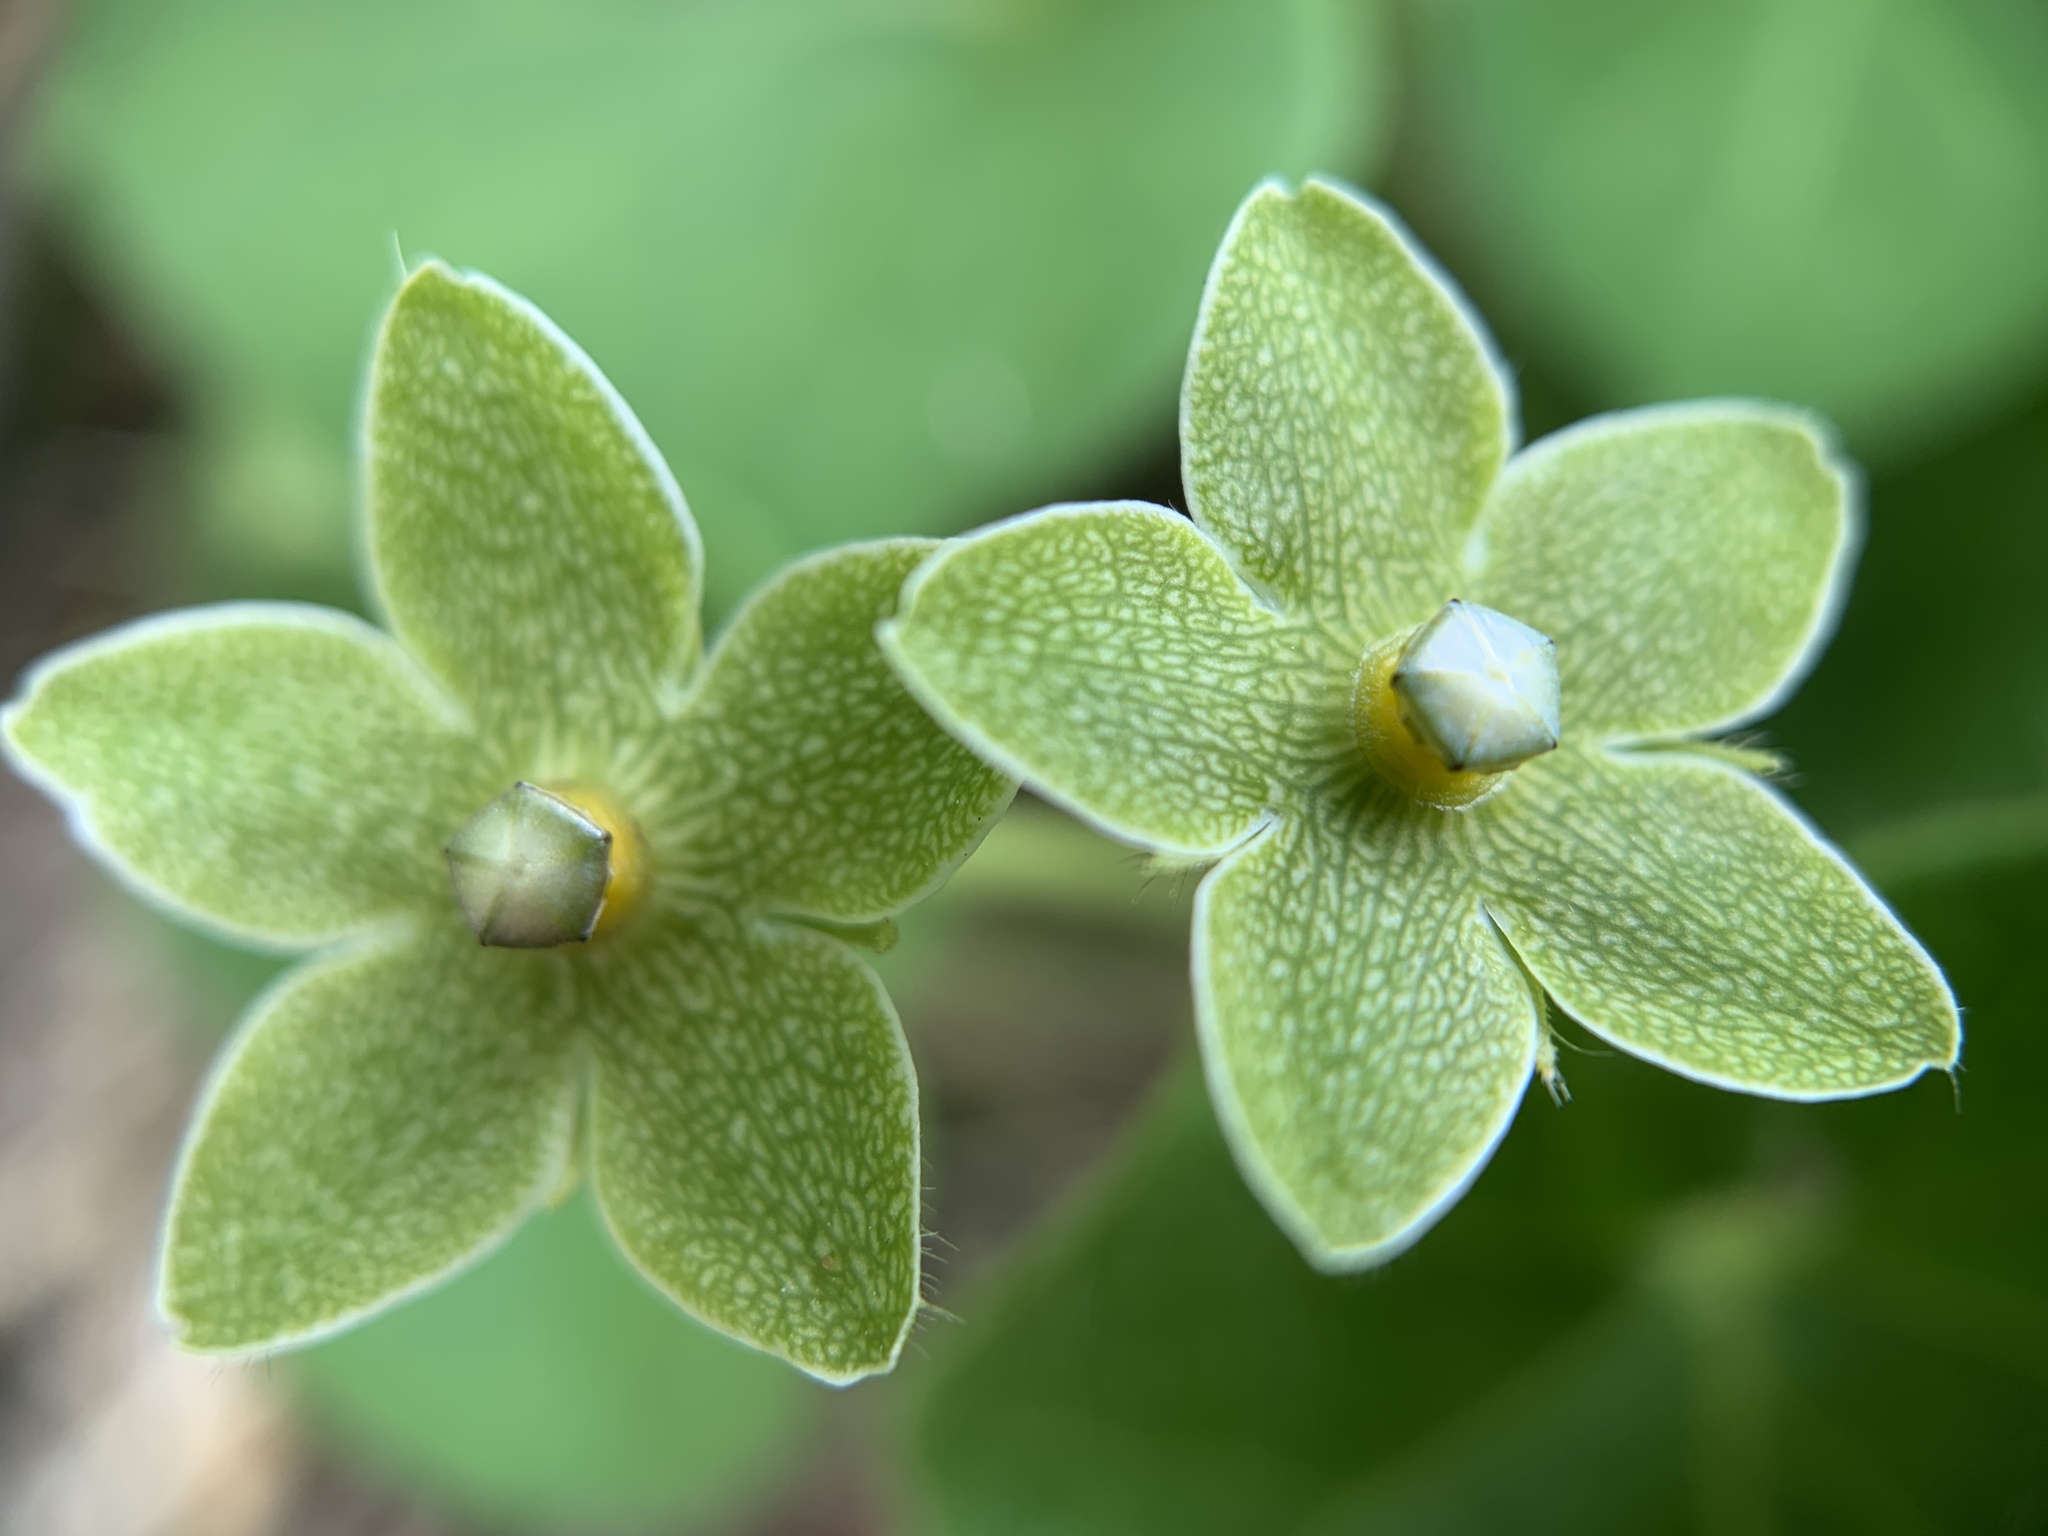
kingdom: Plantae
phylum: Tracheophyta
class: Magnoliopsida
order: Gentianales
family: Apocynaceae
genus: Dictyanthus
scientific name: Dictyanthus reticulatus
